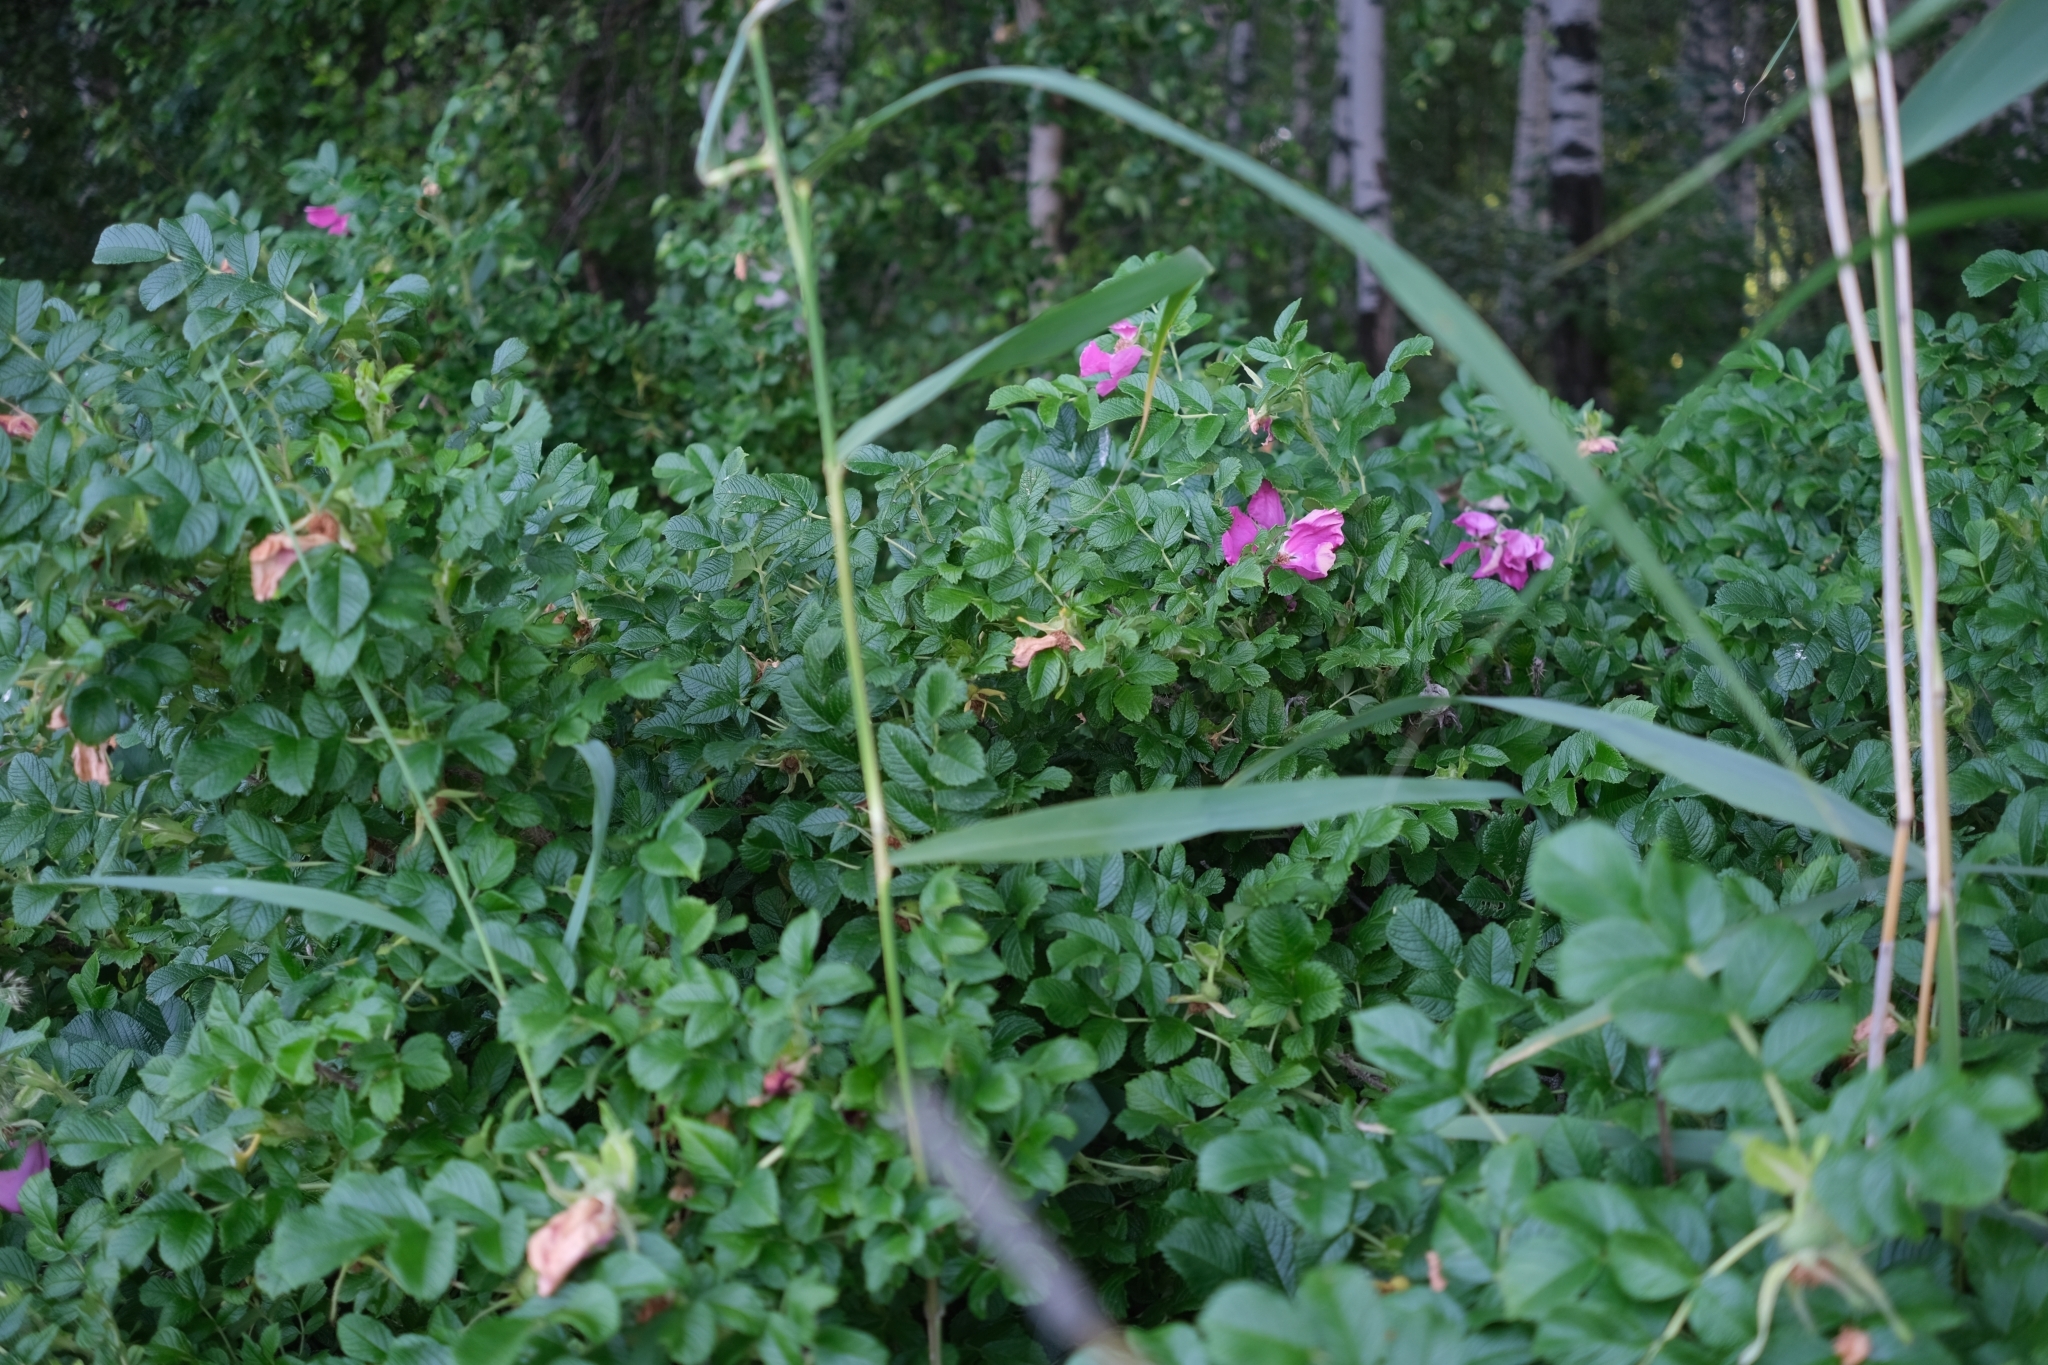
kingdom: Plantae
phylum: Tracheophyta
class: Magnoliopsida
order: Rosales
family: Rosaceae
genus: Rosa
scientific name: Rosa rugosa
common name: Japanese rose
